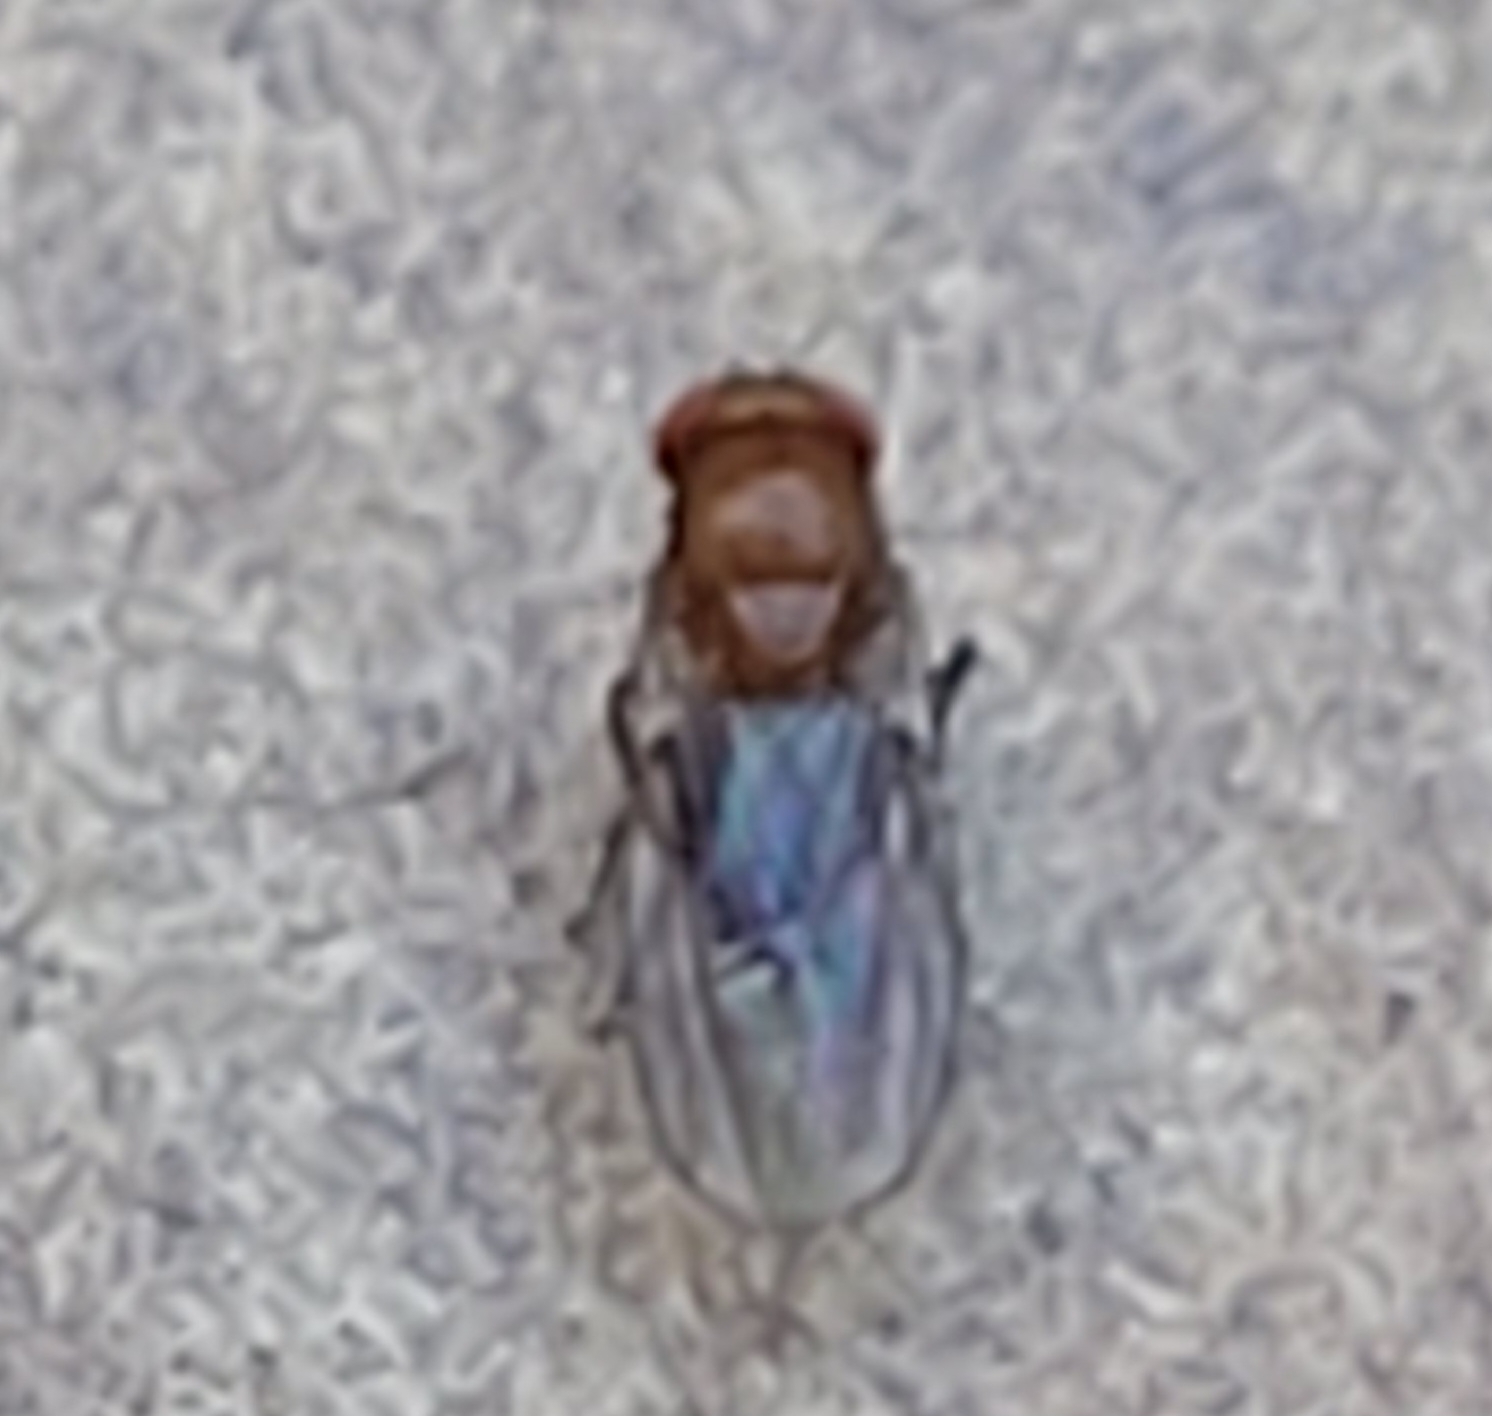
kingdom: Animalia
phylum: Arthropoda
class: Insecta
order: Diptera
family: Drosophilidae
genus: Drosophila
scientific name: Drosophila suzukii
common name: Spotted-wing drosophila
